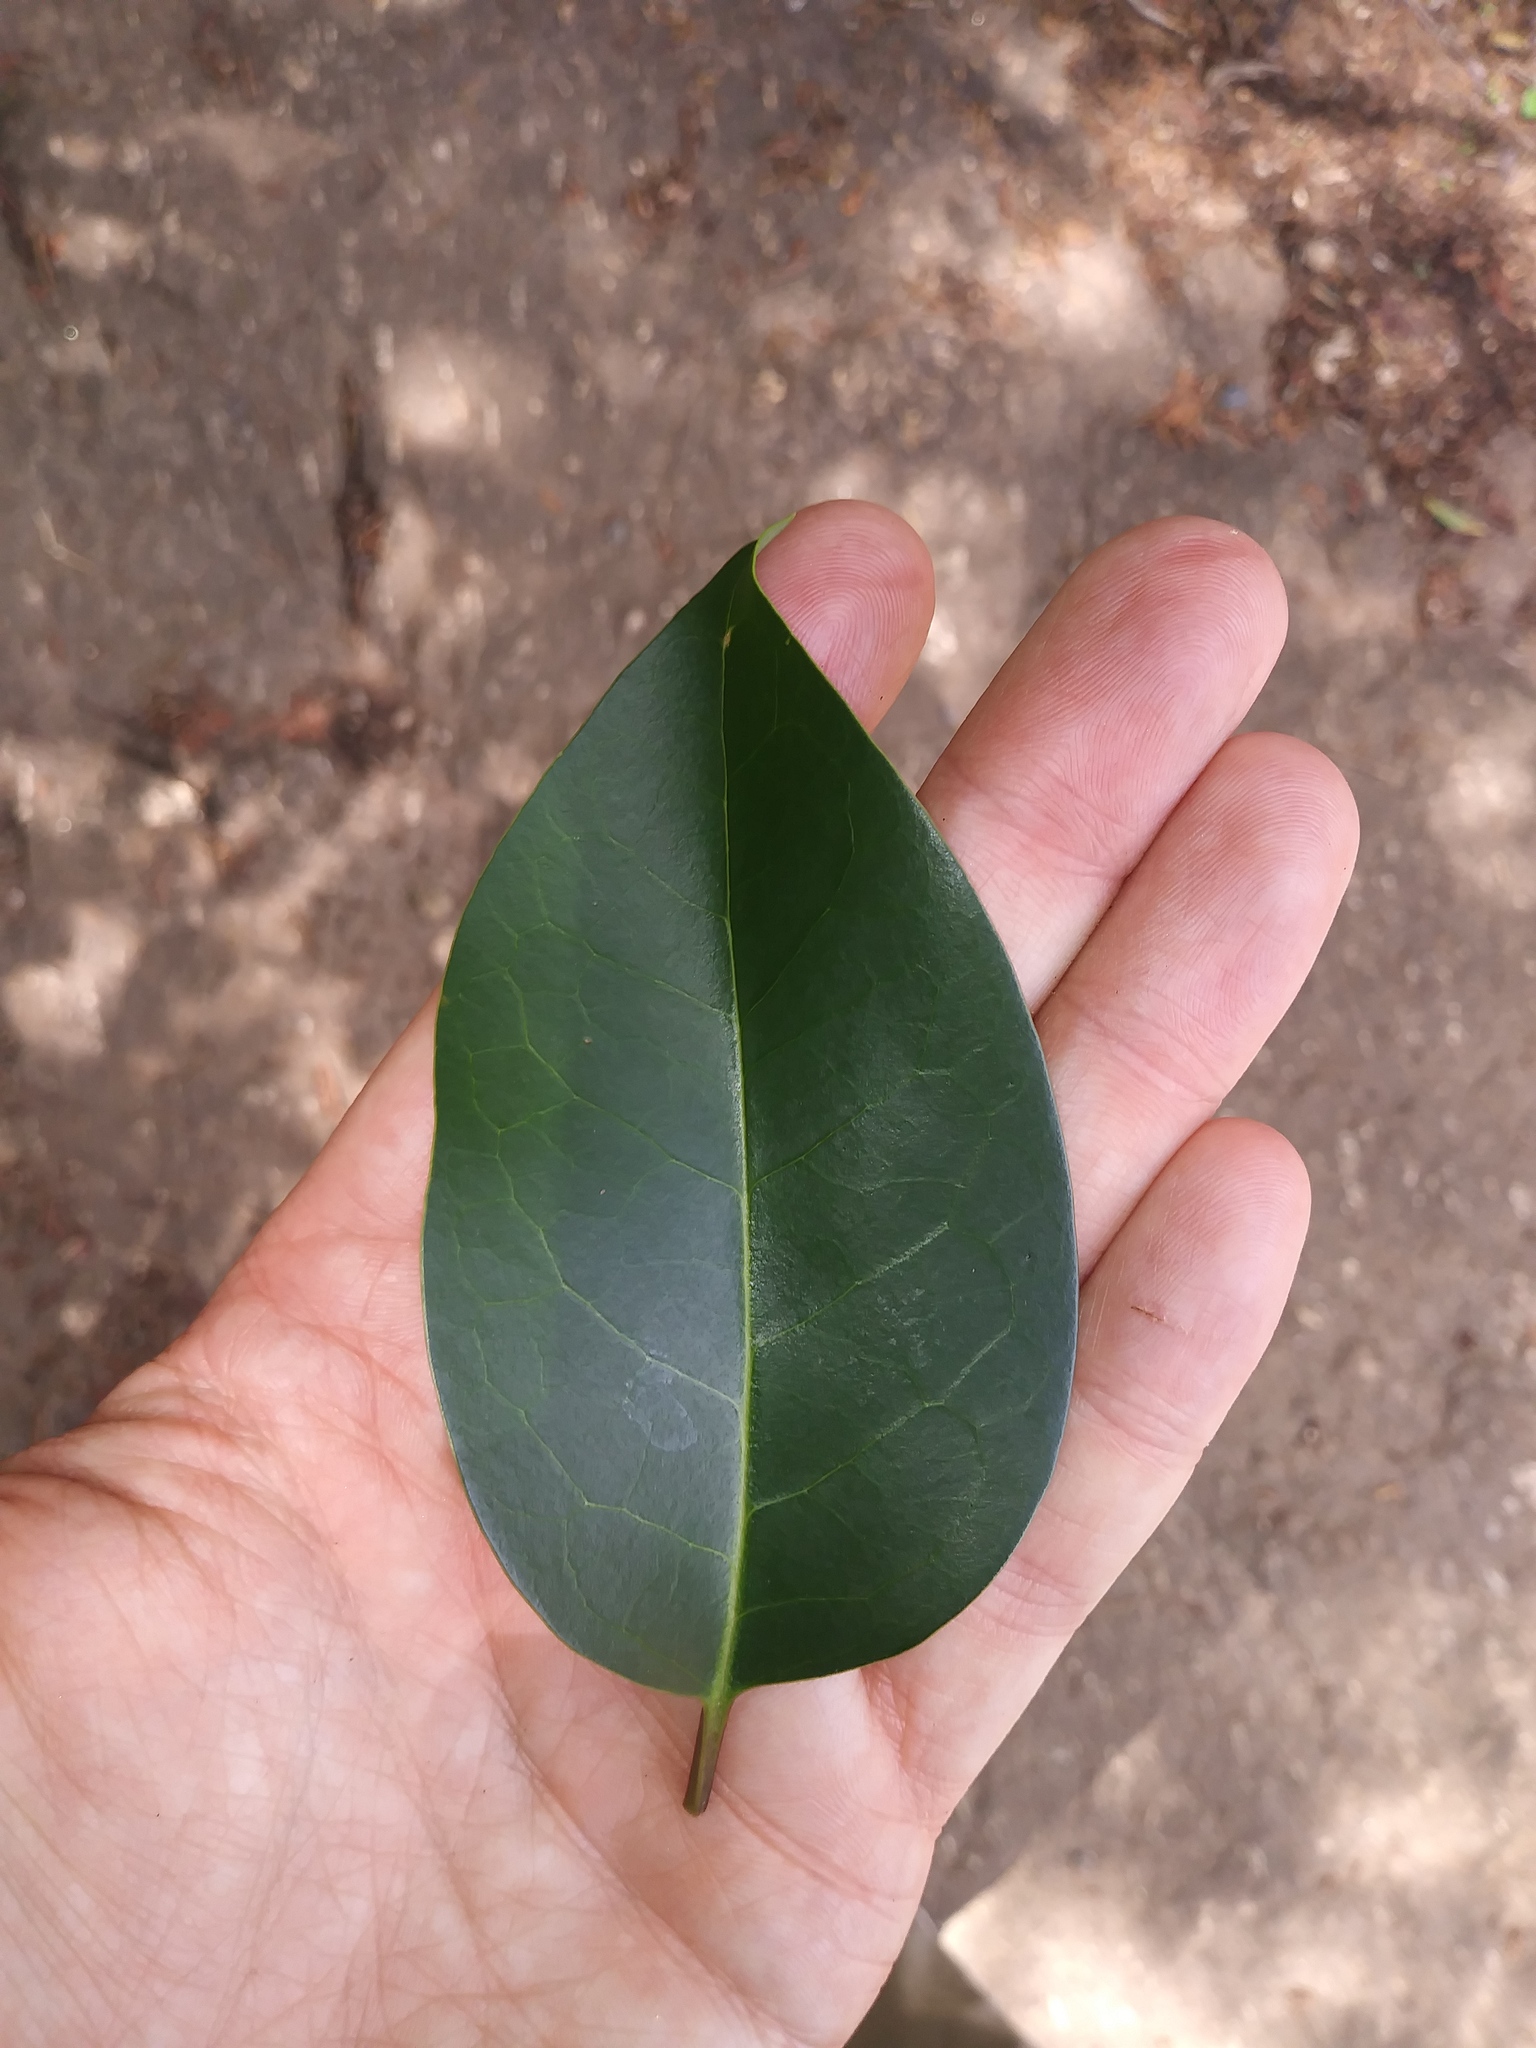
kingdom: Plantae
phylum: Tracheophyta
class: Magnoliopsida
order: Lamiales
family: Oleaceae
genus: Ligustrum
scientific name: Ligustrum lucidum
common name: Glossy privet
